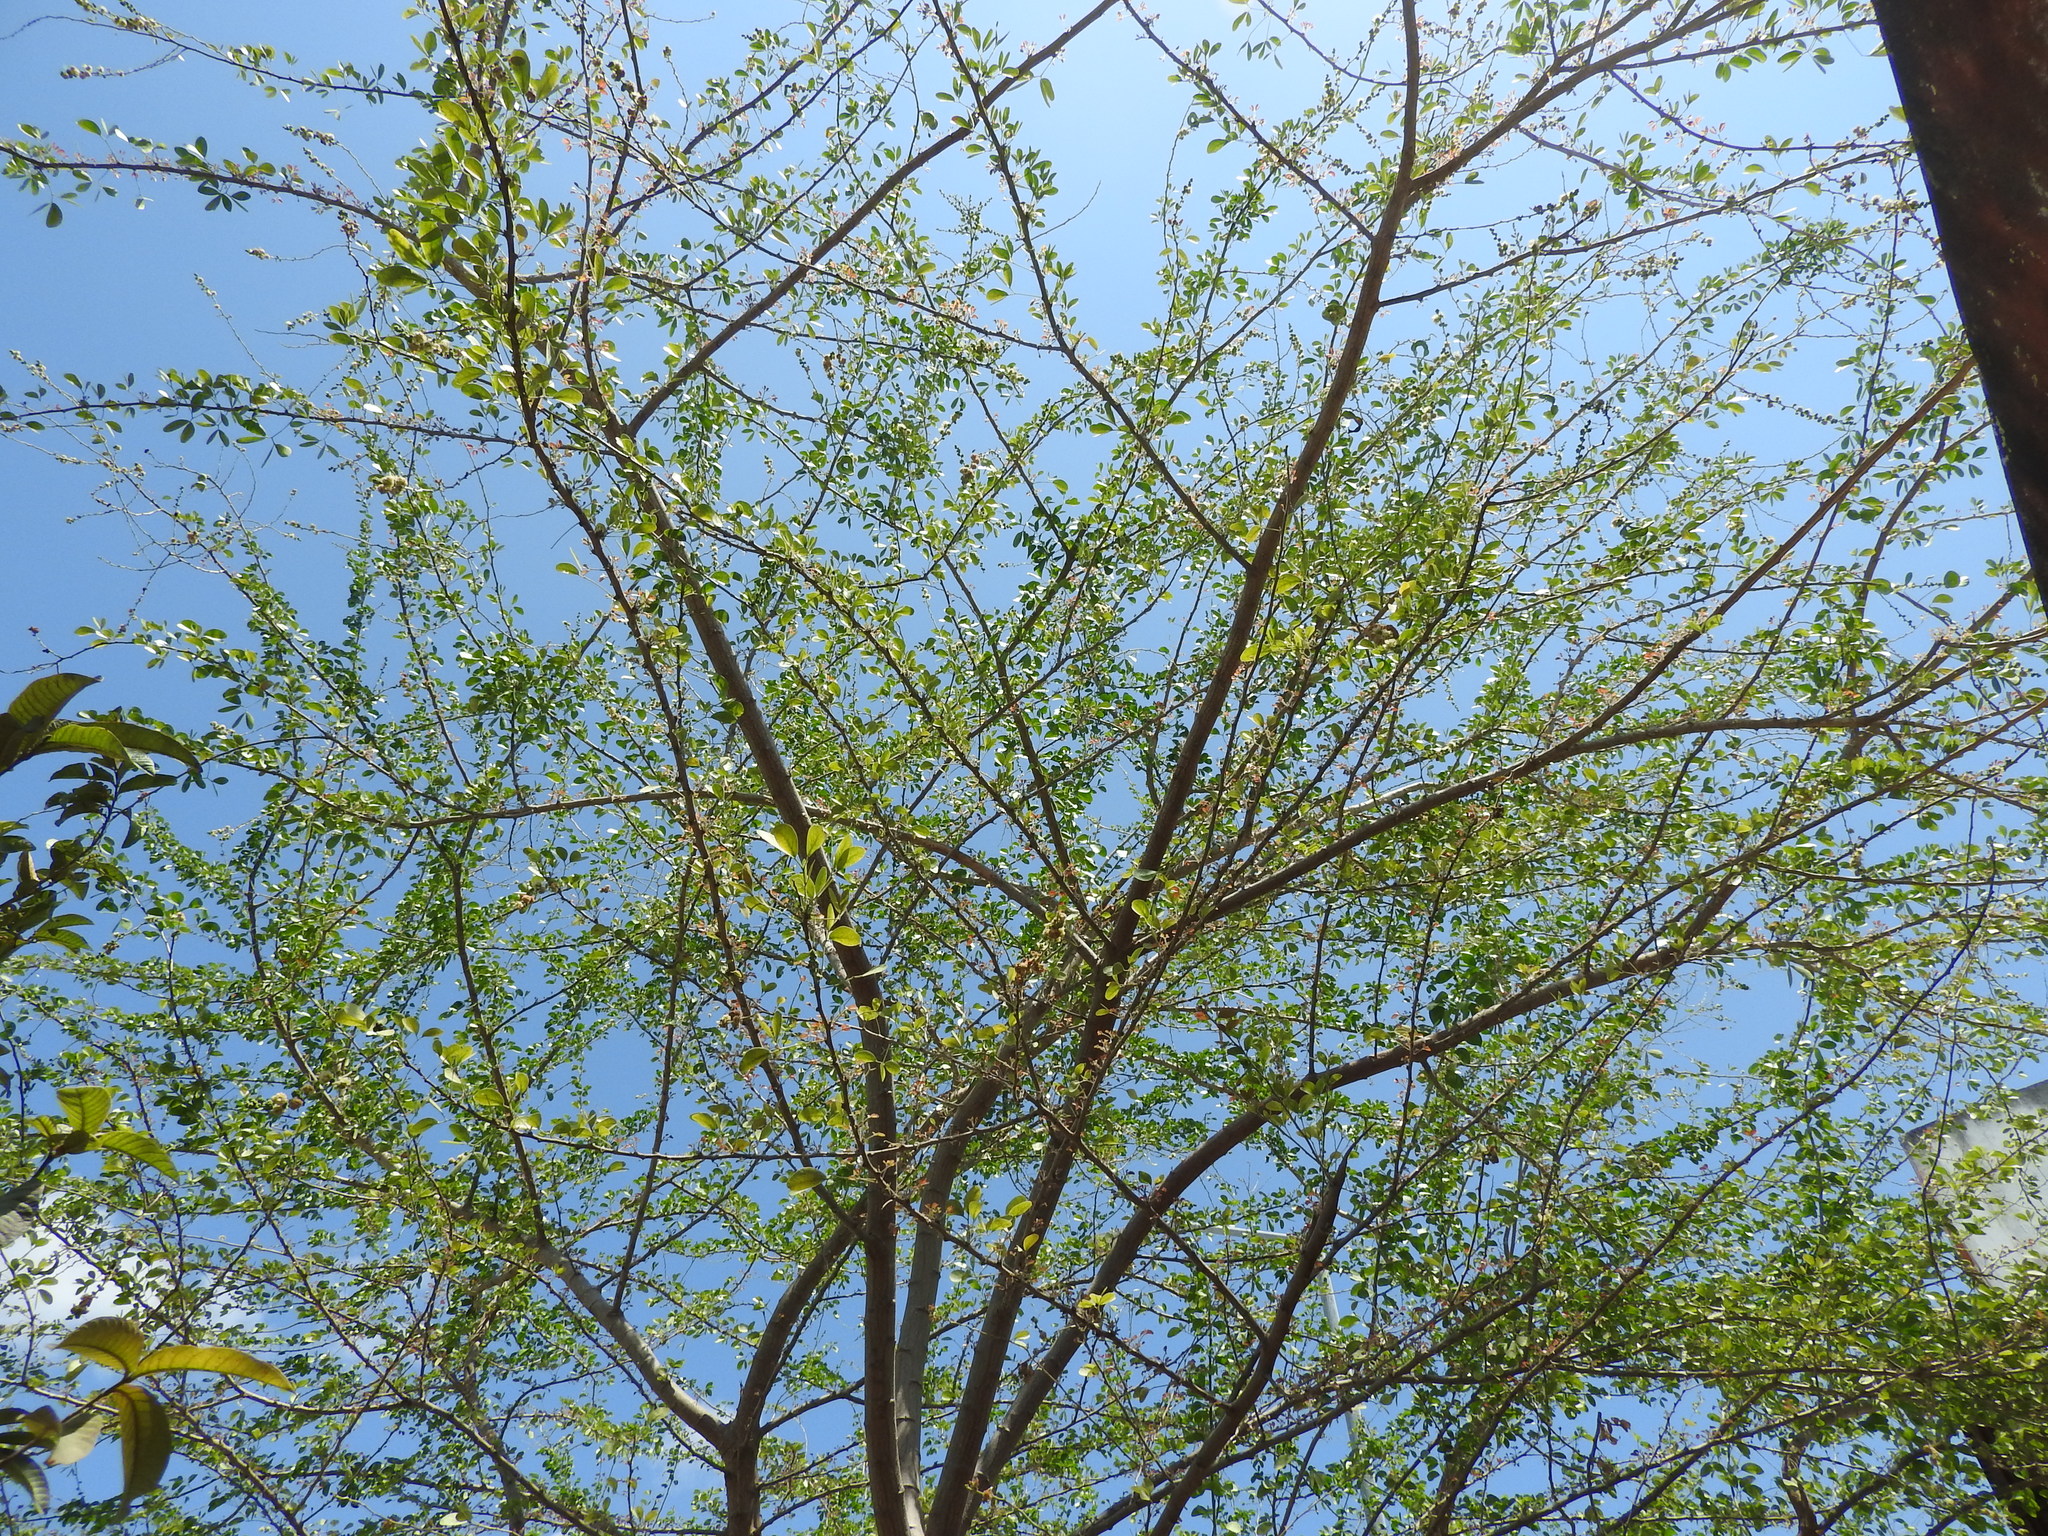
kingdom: Plantae
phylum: Tracheophyta
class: Magnoliopsida
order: Fabales
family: Fabaceae
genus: Pithecellobium
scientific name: Pithecellobium dulce
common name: Monkeypod
